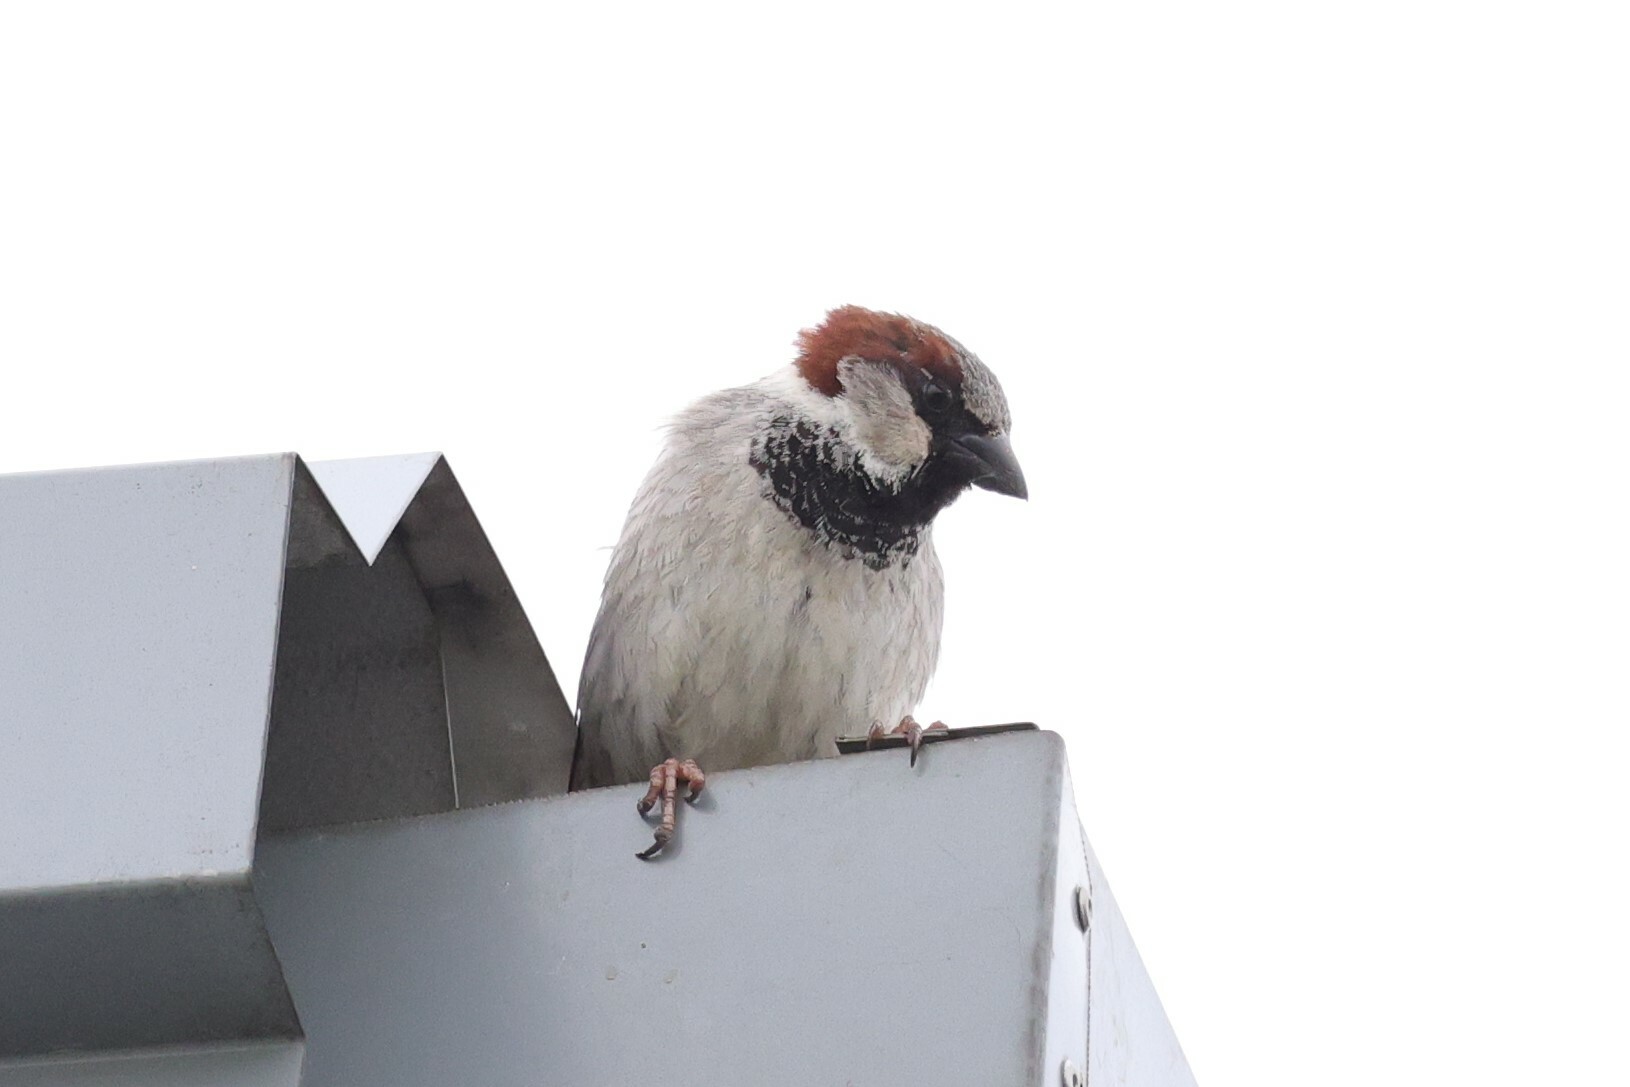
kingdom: Animalia
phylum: Chordata
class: Aves
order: Passeriformes
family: Passeridae
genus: Passer
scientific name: Passer domesticus
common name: House sparrow
